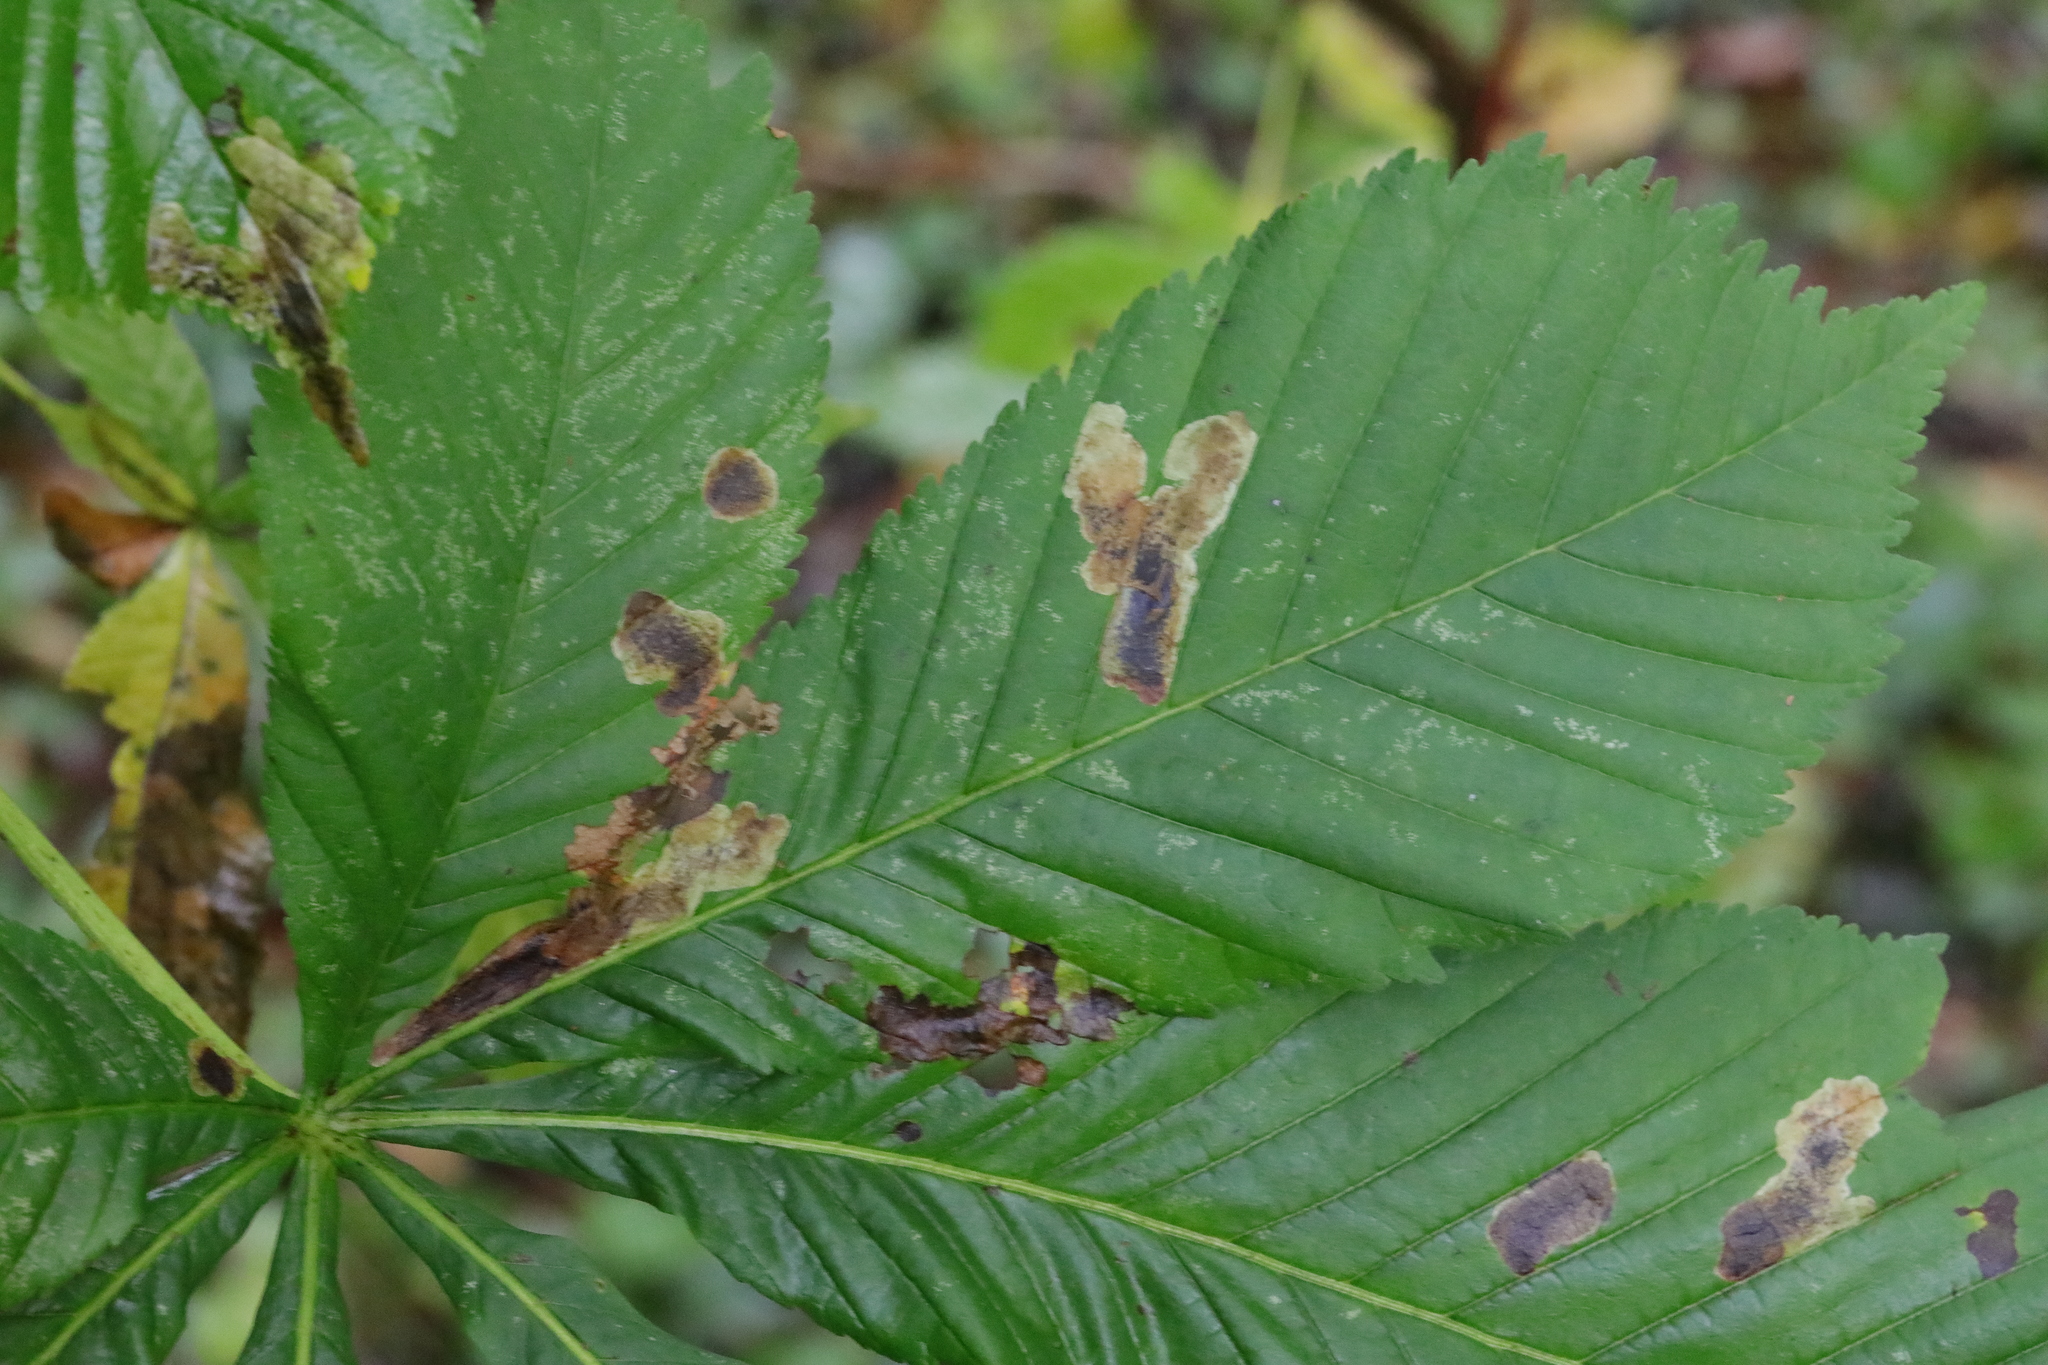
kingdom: Plantae
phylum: Tracheophyta
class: Magnoliopsida
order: Sapindales
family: Sapindaceae
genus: Aesculus
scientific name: Aesculus hippocastanum
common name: Horse-chestnut
